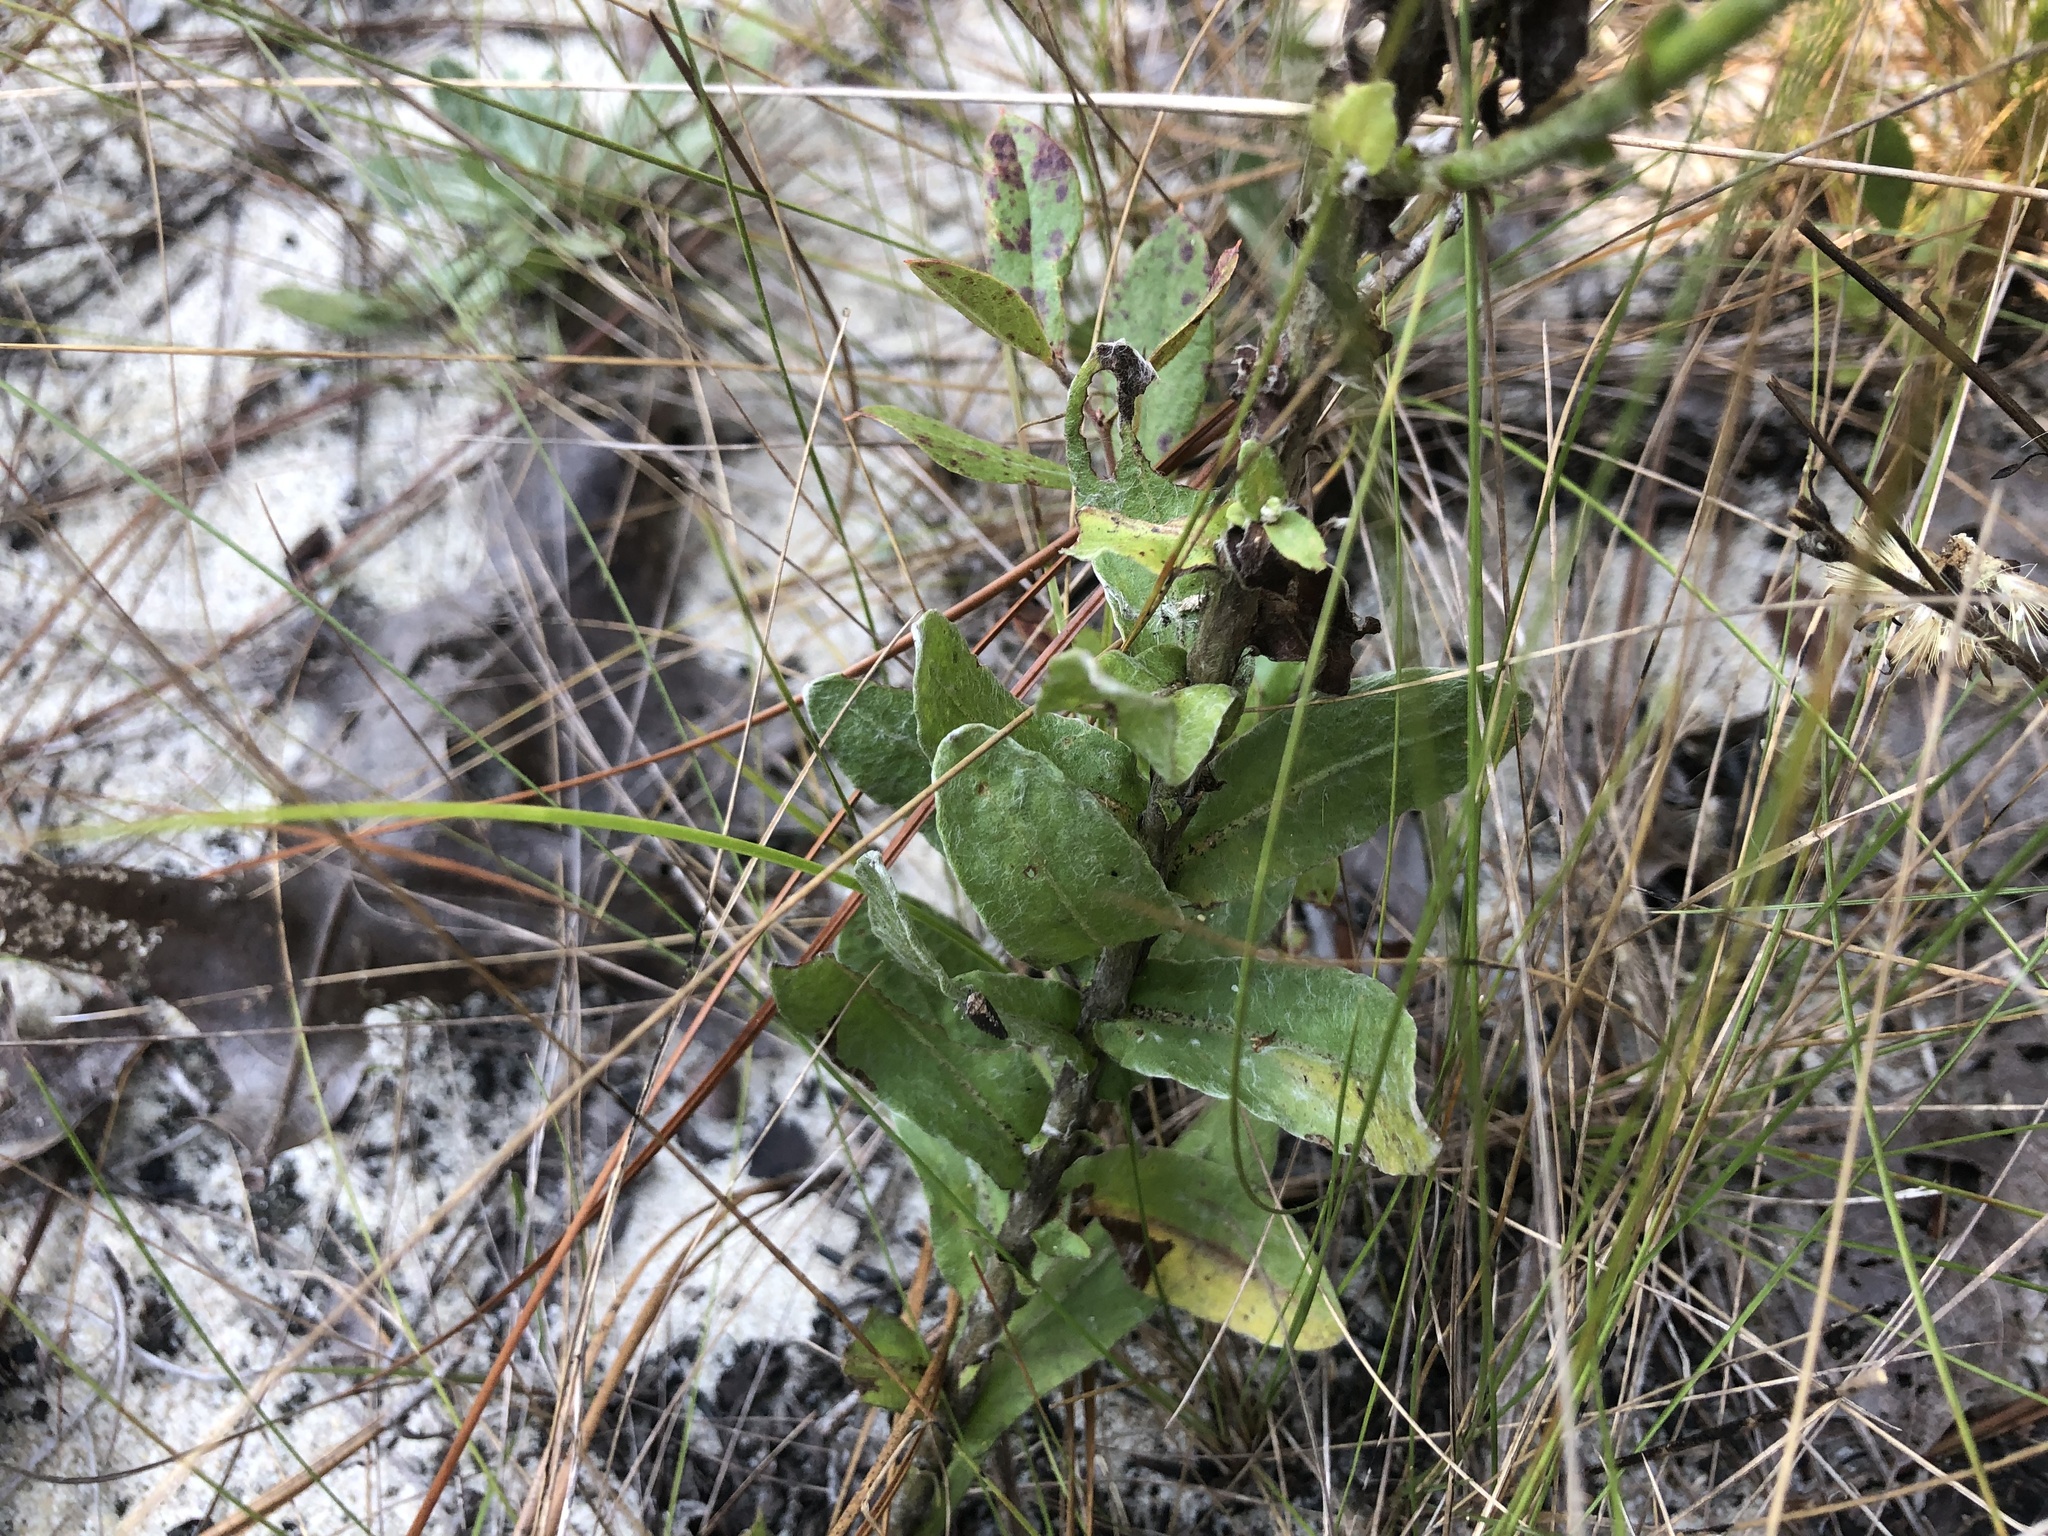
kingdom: Plantae
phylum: Tracheophyta
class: Magnoliopsida
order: Asterales
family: Asteraceae
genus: Chrysopsis
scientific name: Chrysopsis gossypina
